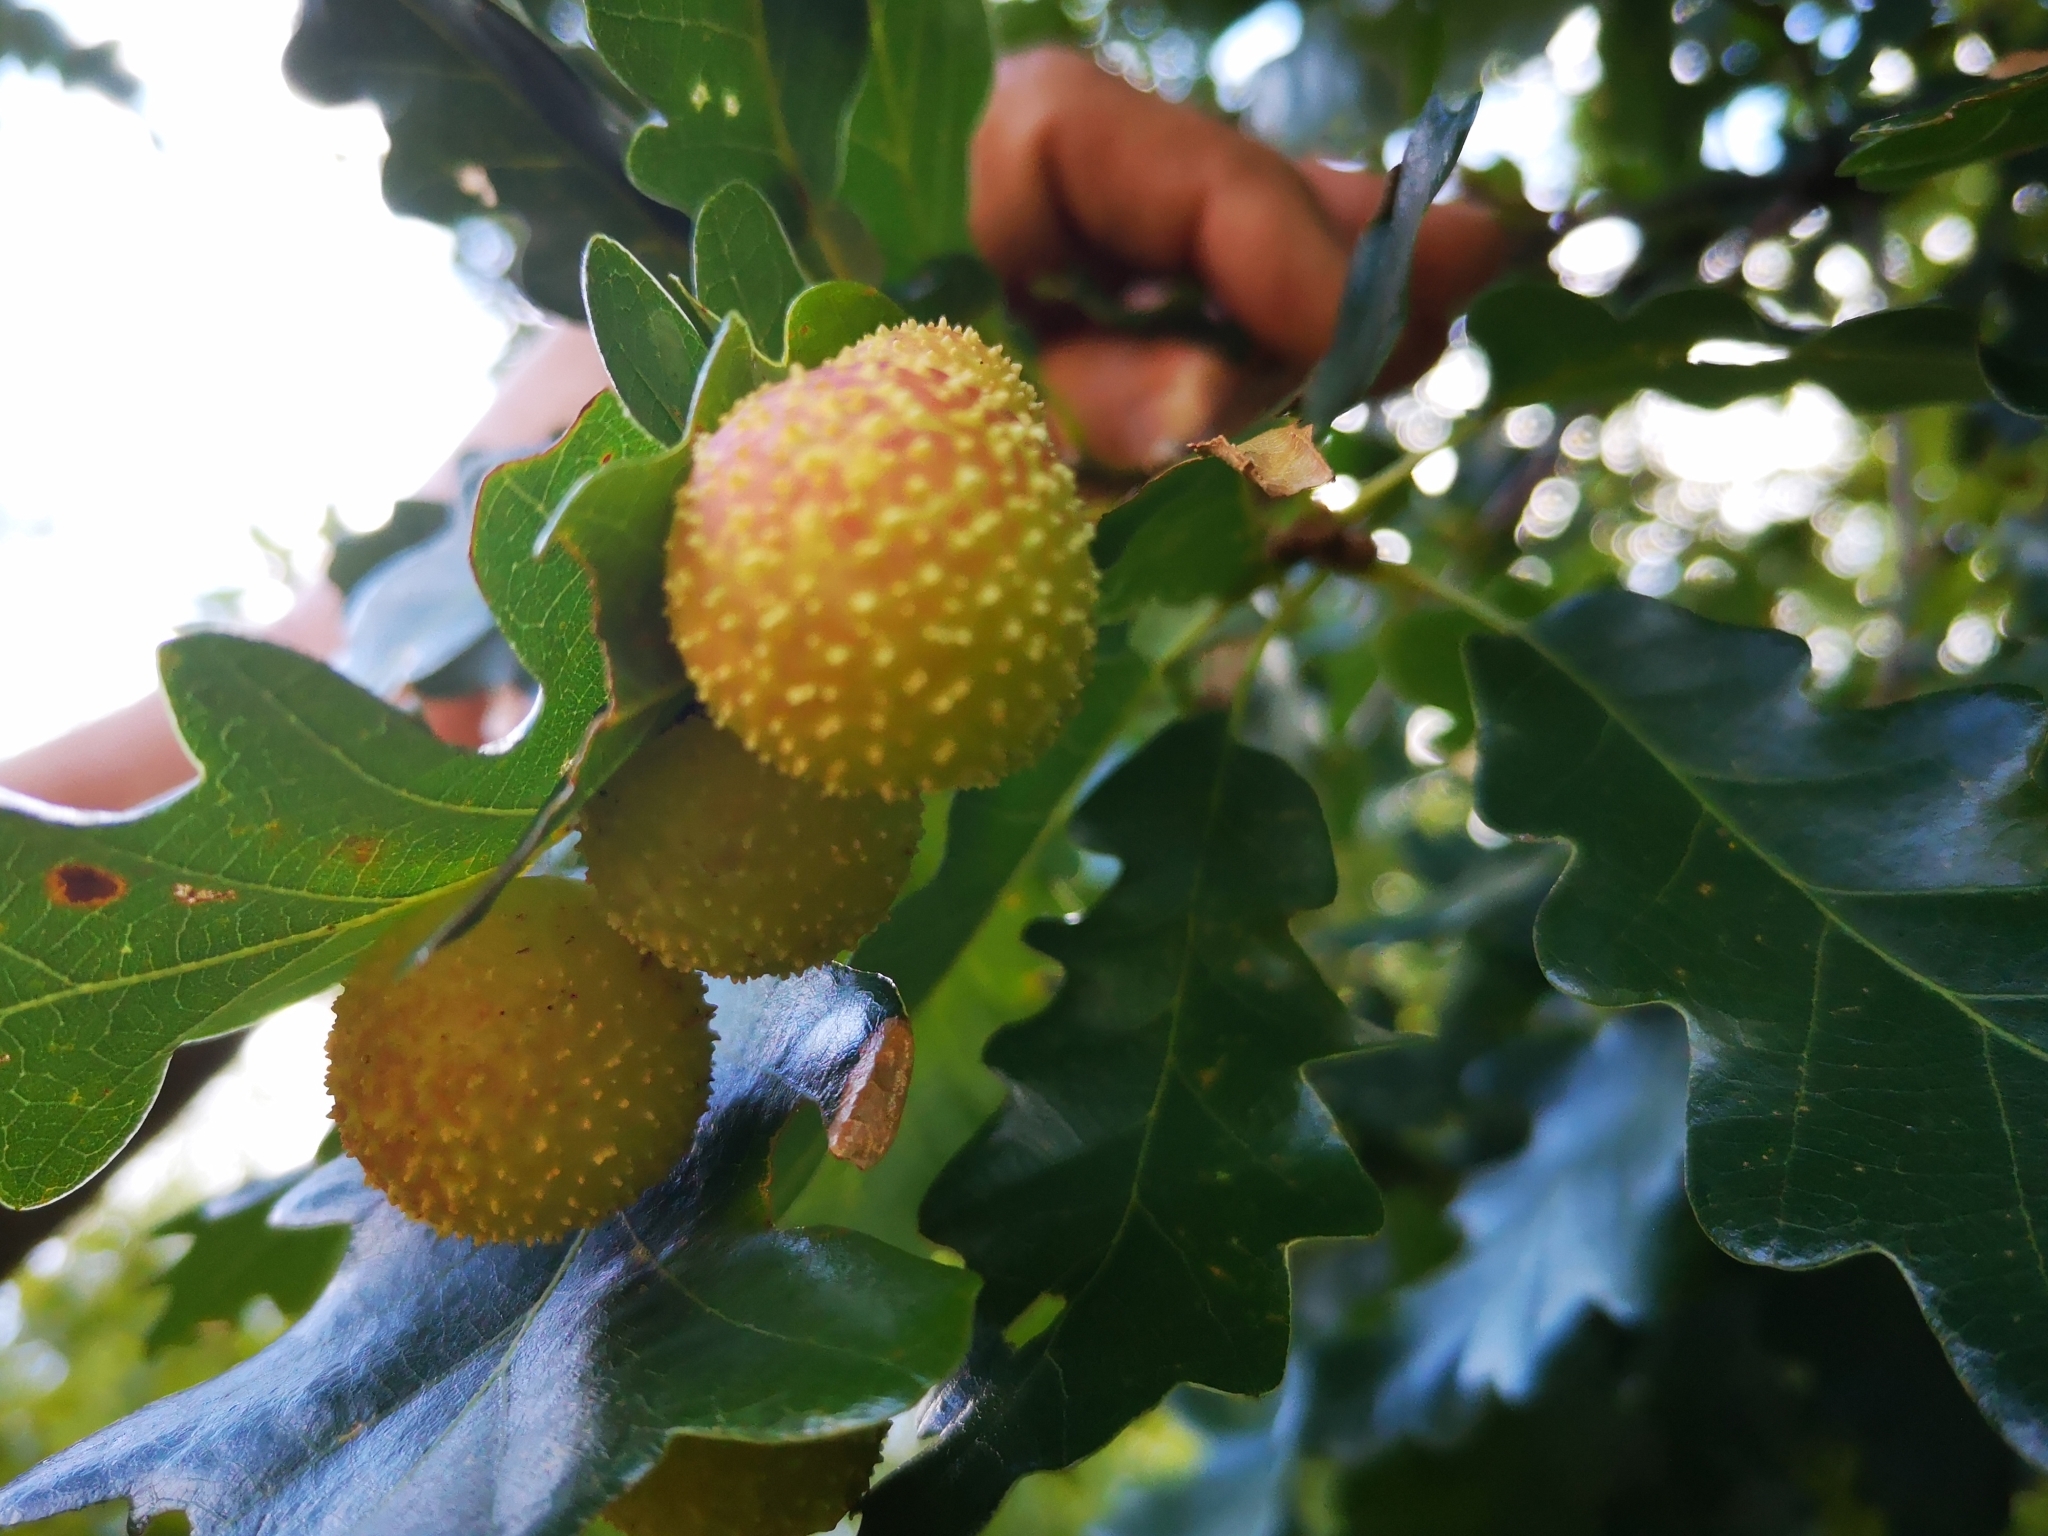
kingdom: Animalia
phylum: Arthropoda
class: Insecta
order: Hymenoptera
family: Cynipidae
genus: Cynips
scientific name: Cynips quercusfolii
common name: Cherry gall
